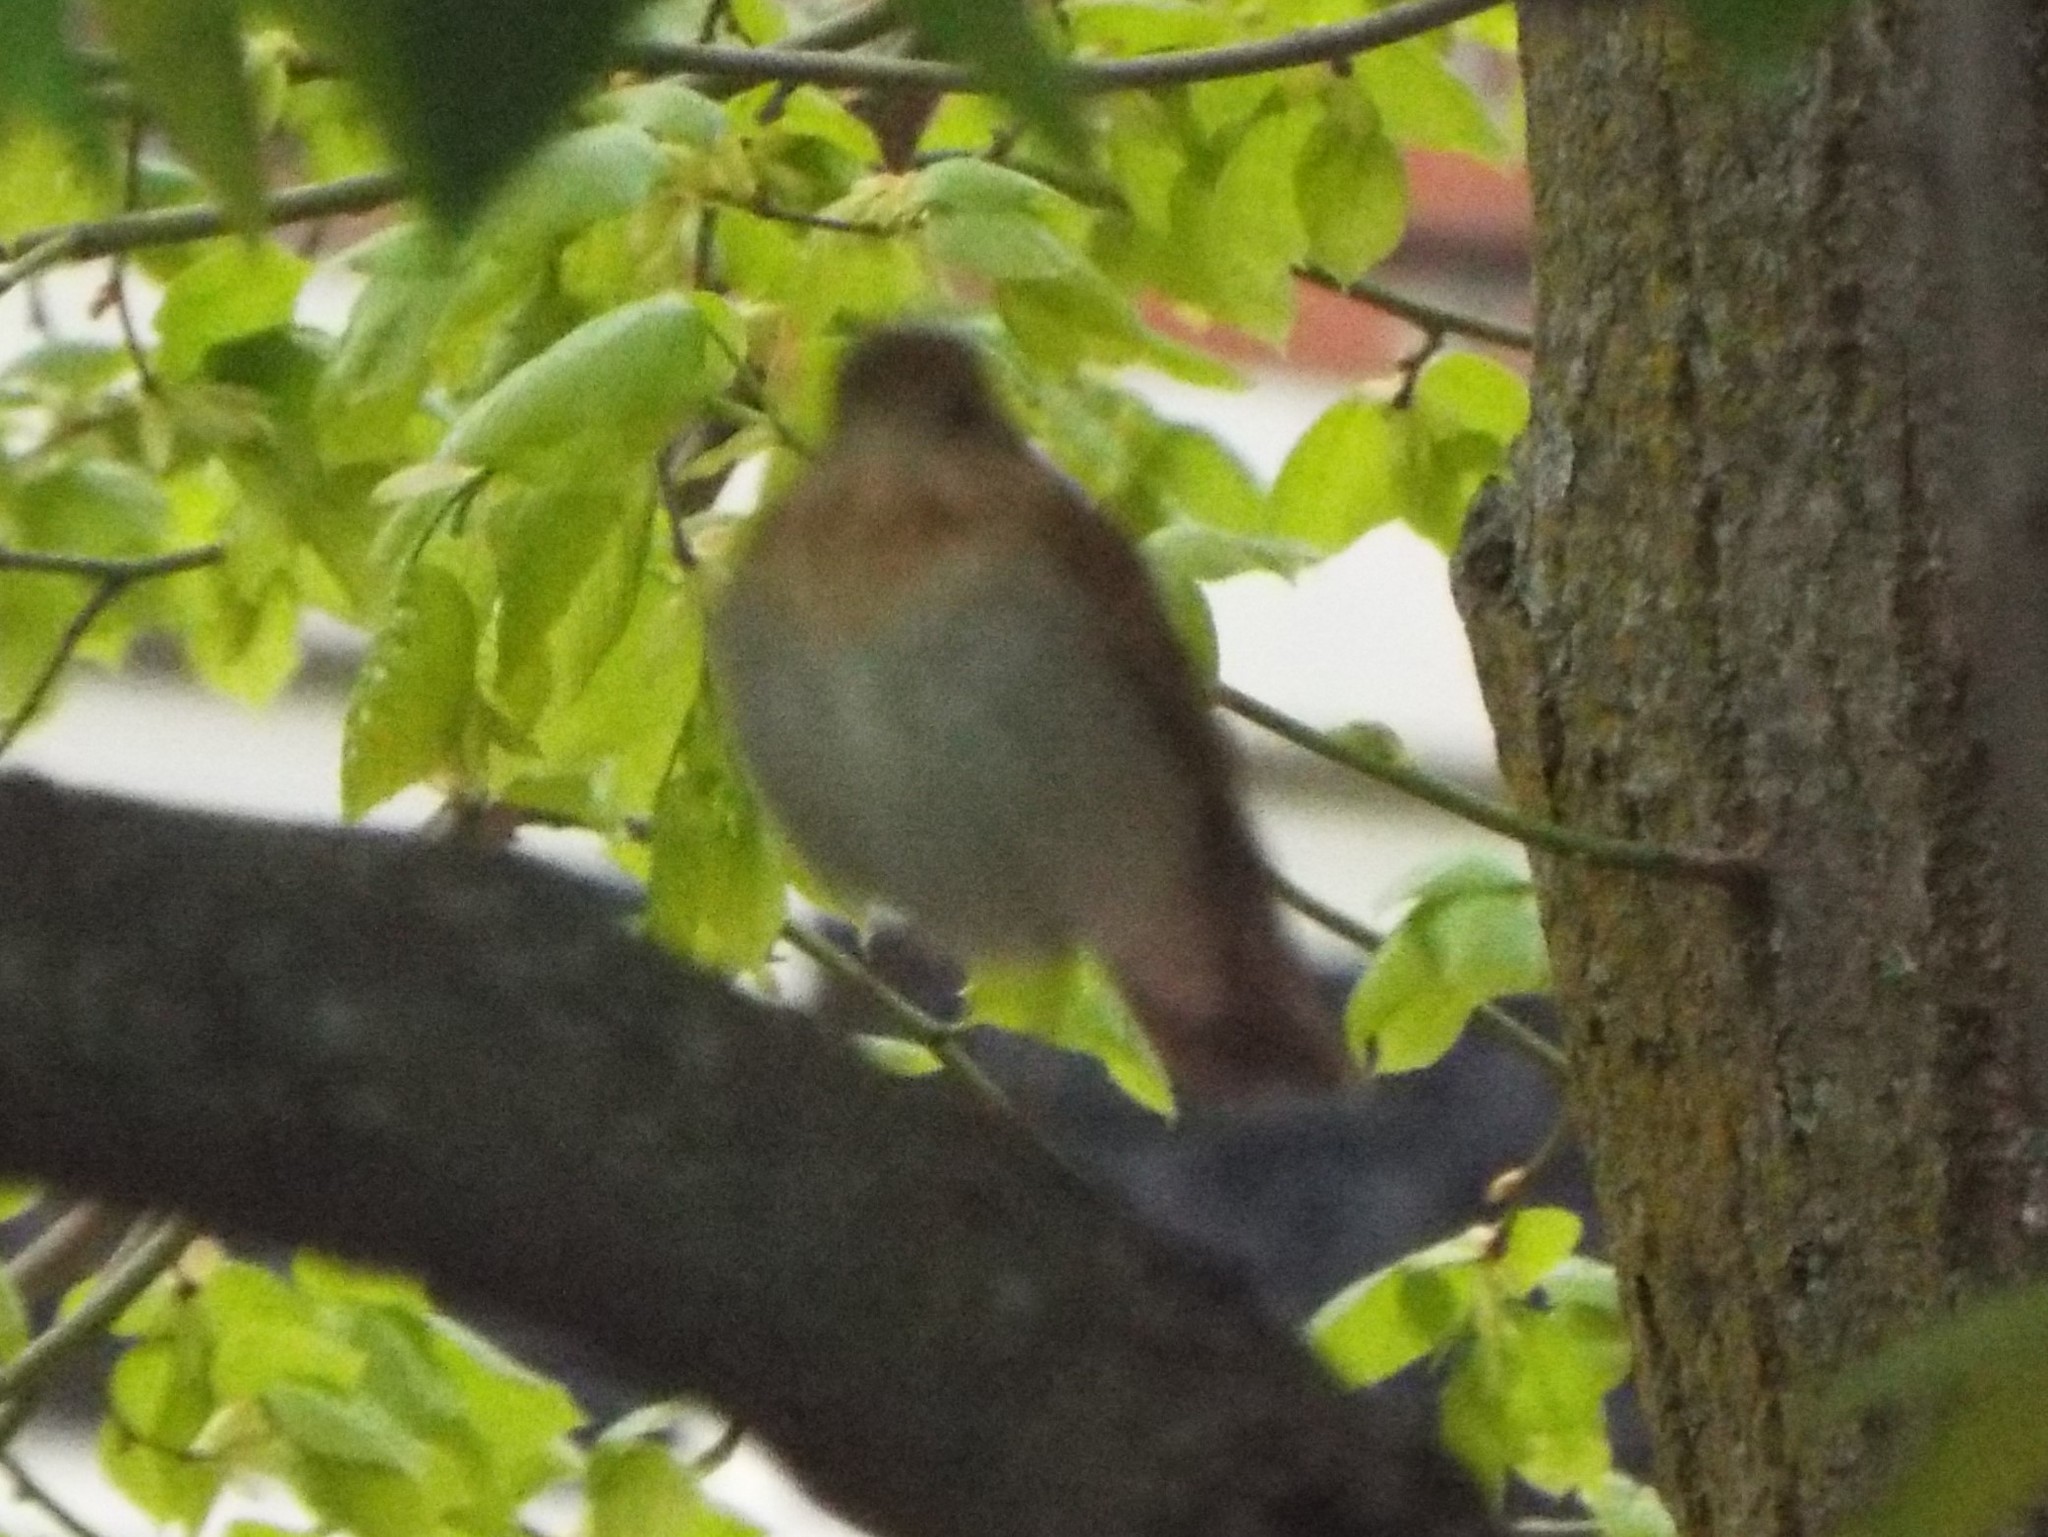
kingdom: Animalia
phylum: Chordata
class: Aves
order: Passeriformes
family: Turdidae
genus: Catharus
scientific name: Catharus fuscescens
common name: Veery
